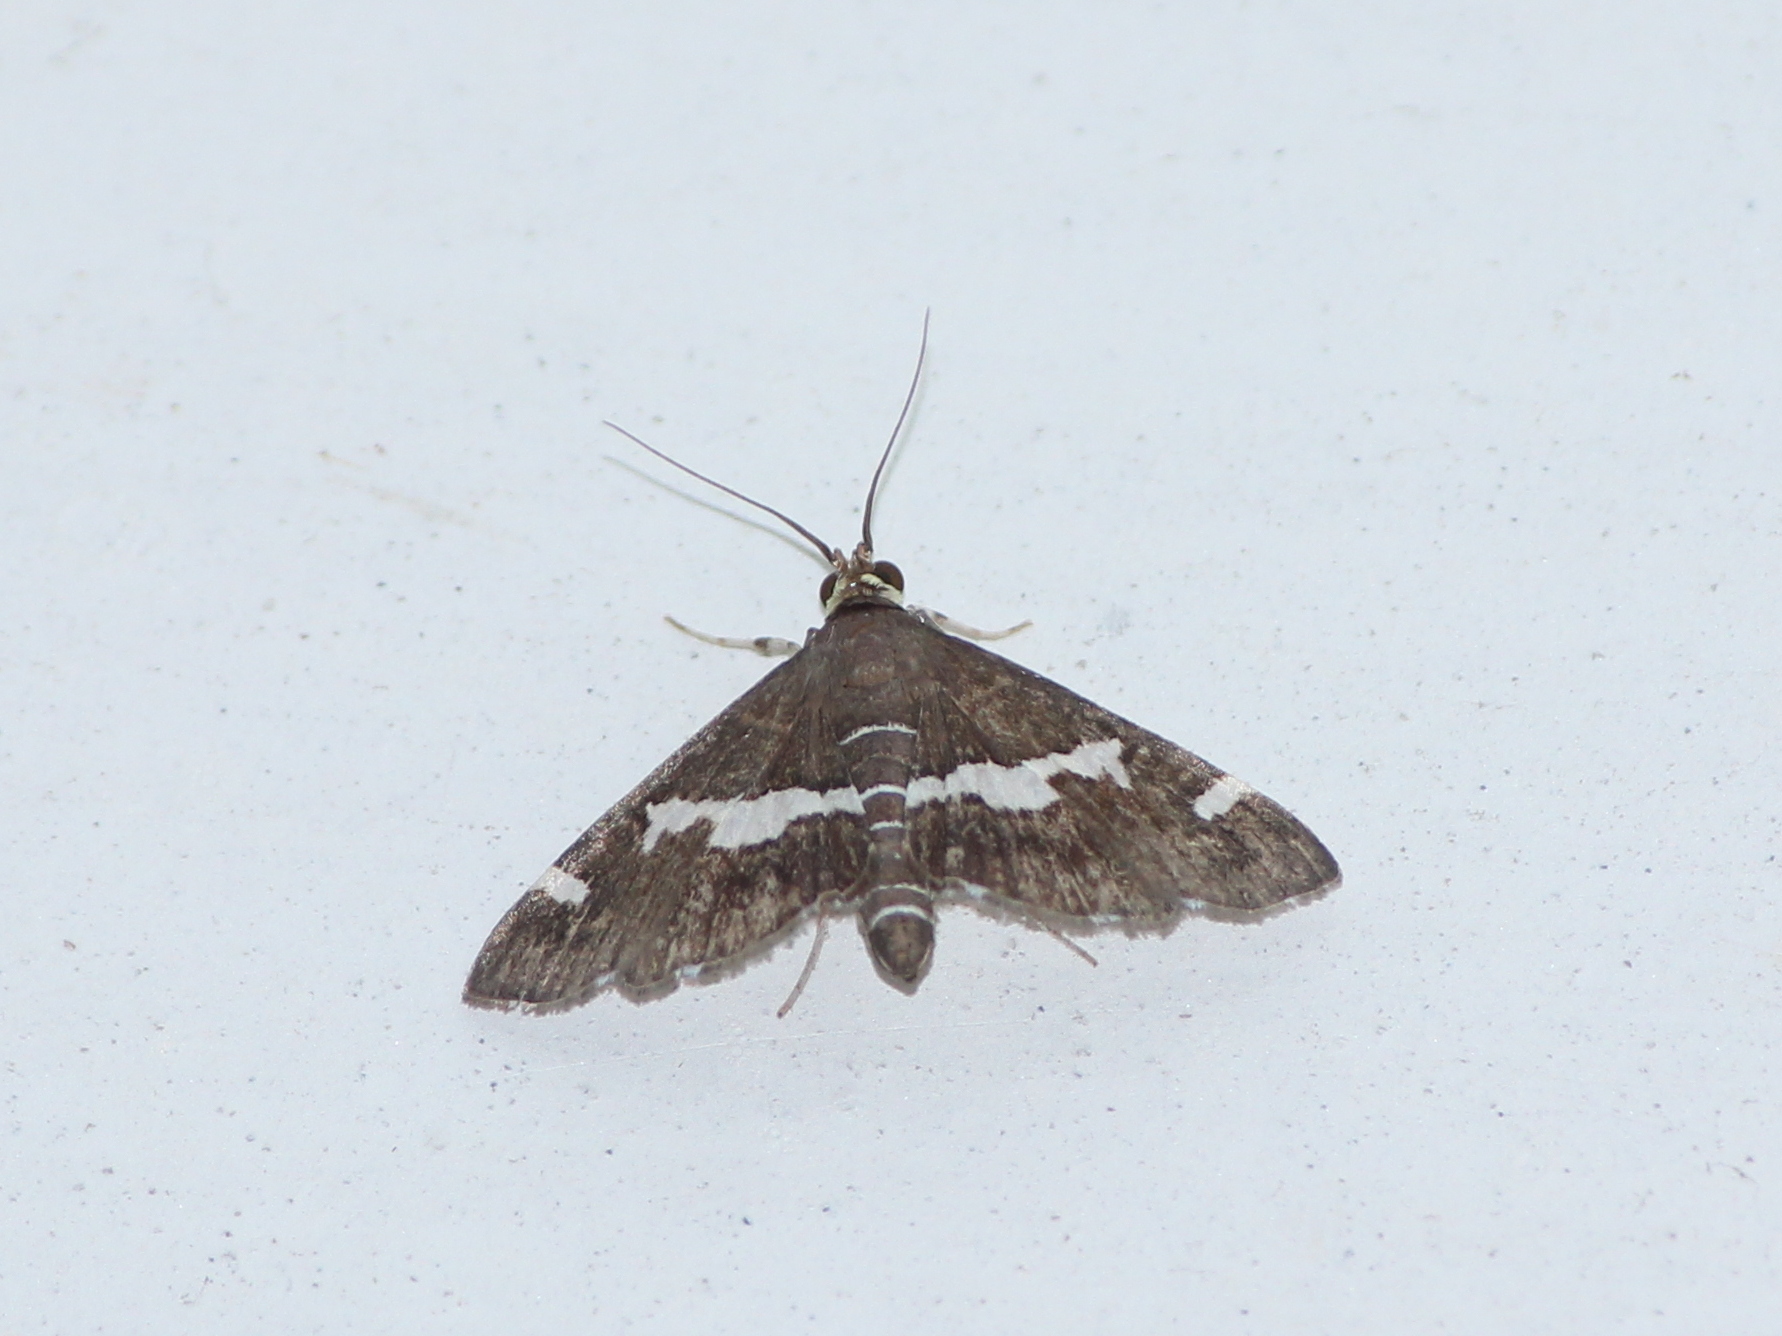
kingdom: Animalia
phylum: Arthropoda
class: Insecta
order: Lepidoptera
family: Crambidae
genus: Spoladea
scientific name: Spoladea recurvalis
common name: Beet webworm moth
